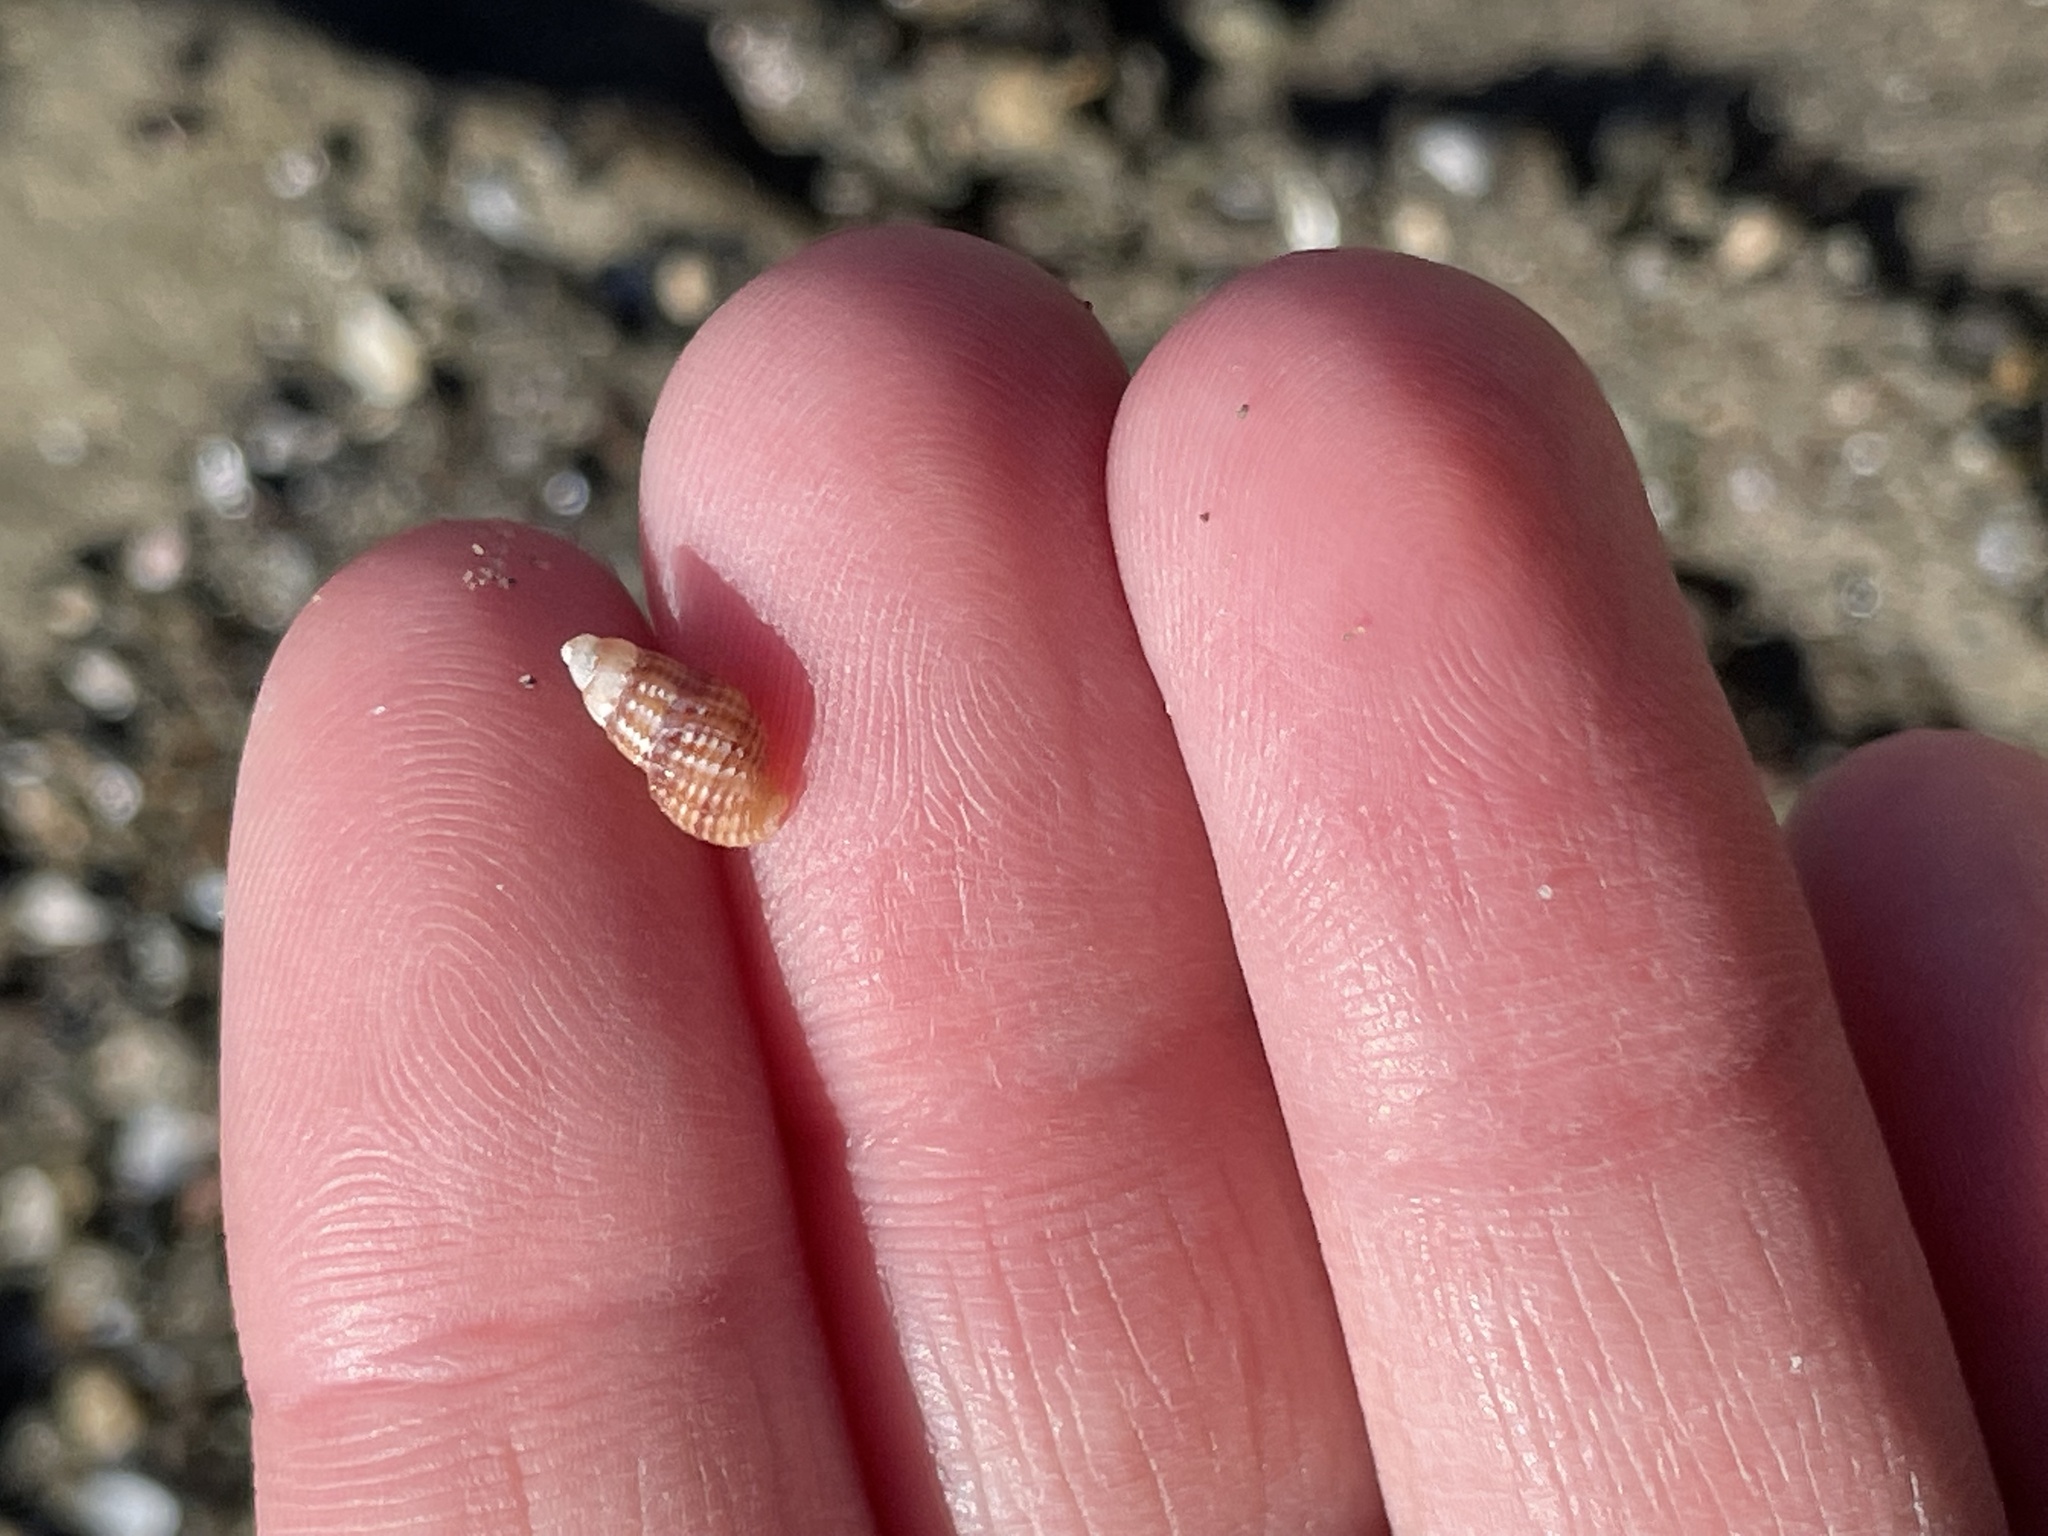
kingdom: Animalia
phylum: Mollusca
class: Gastropoda
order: Neogastropoda
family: Nassariidae
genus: Ilyanassa
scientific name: Ilyanassa trivittata
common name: Three-line mudsnail
